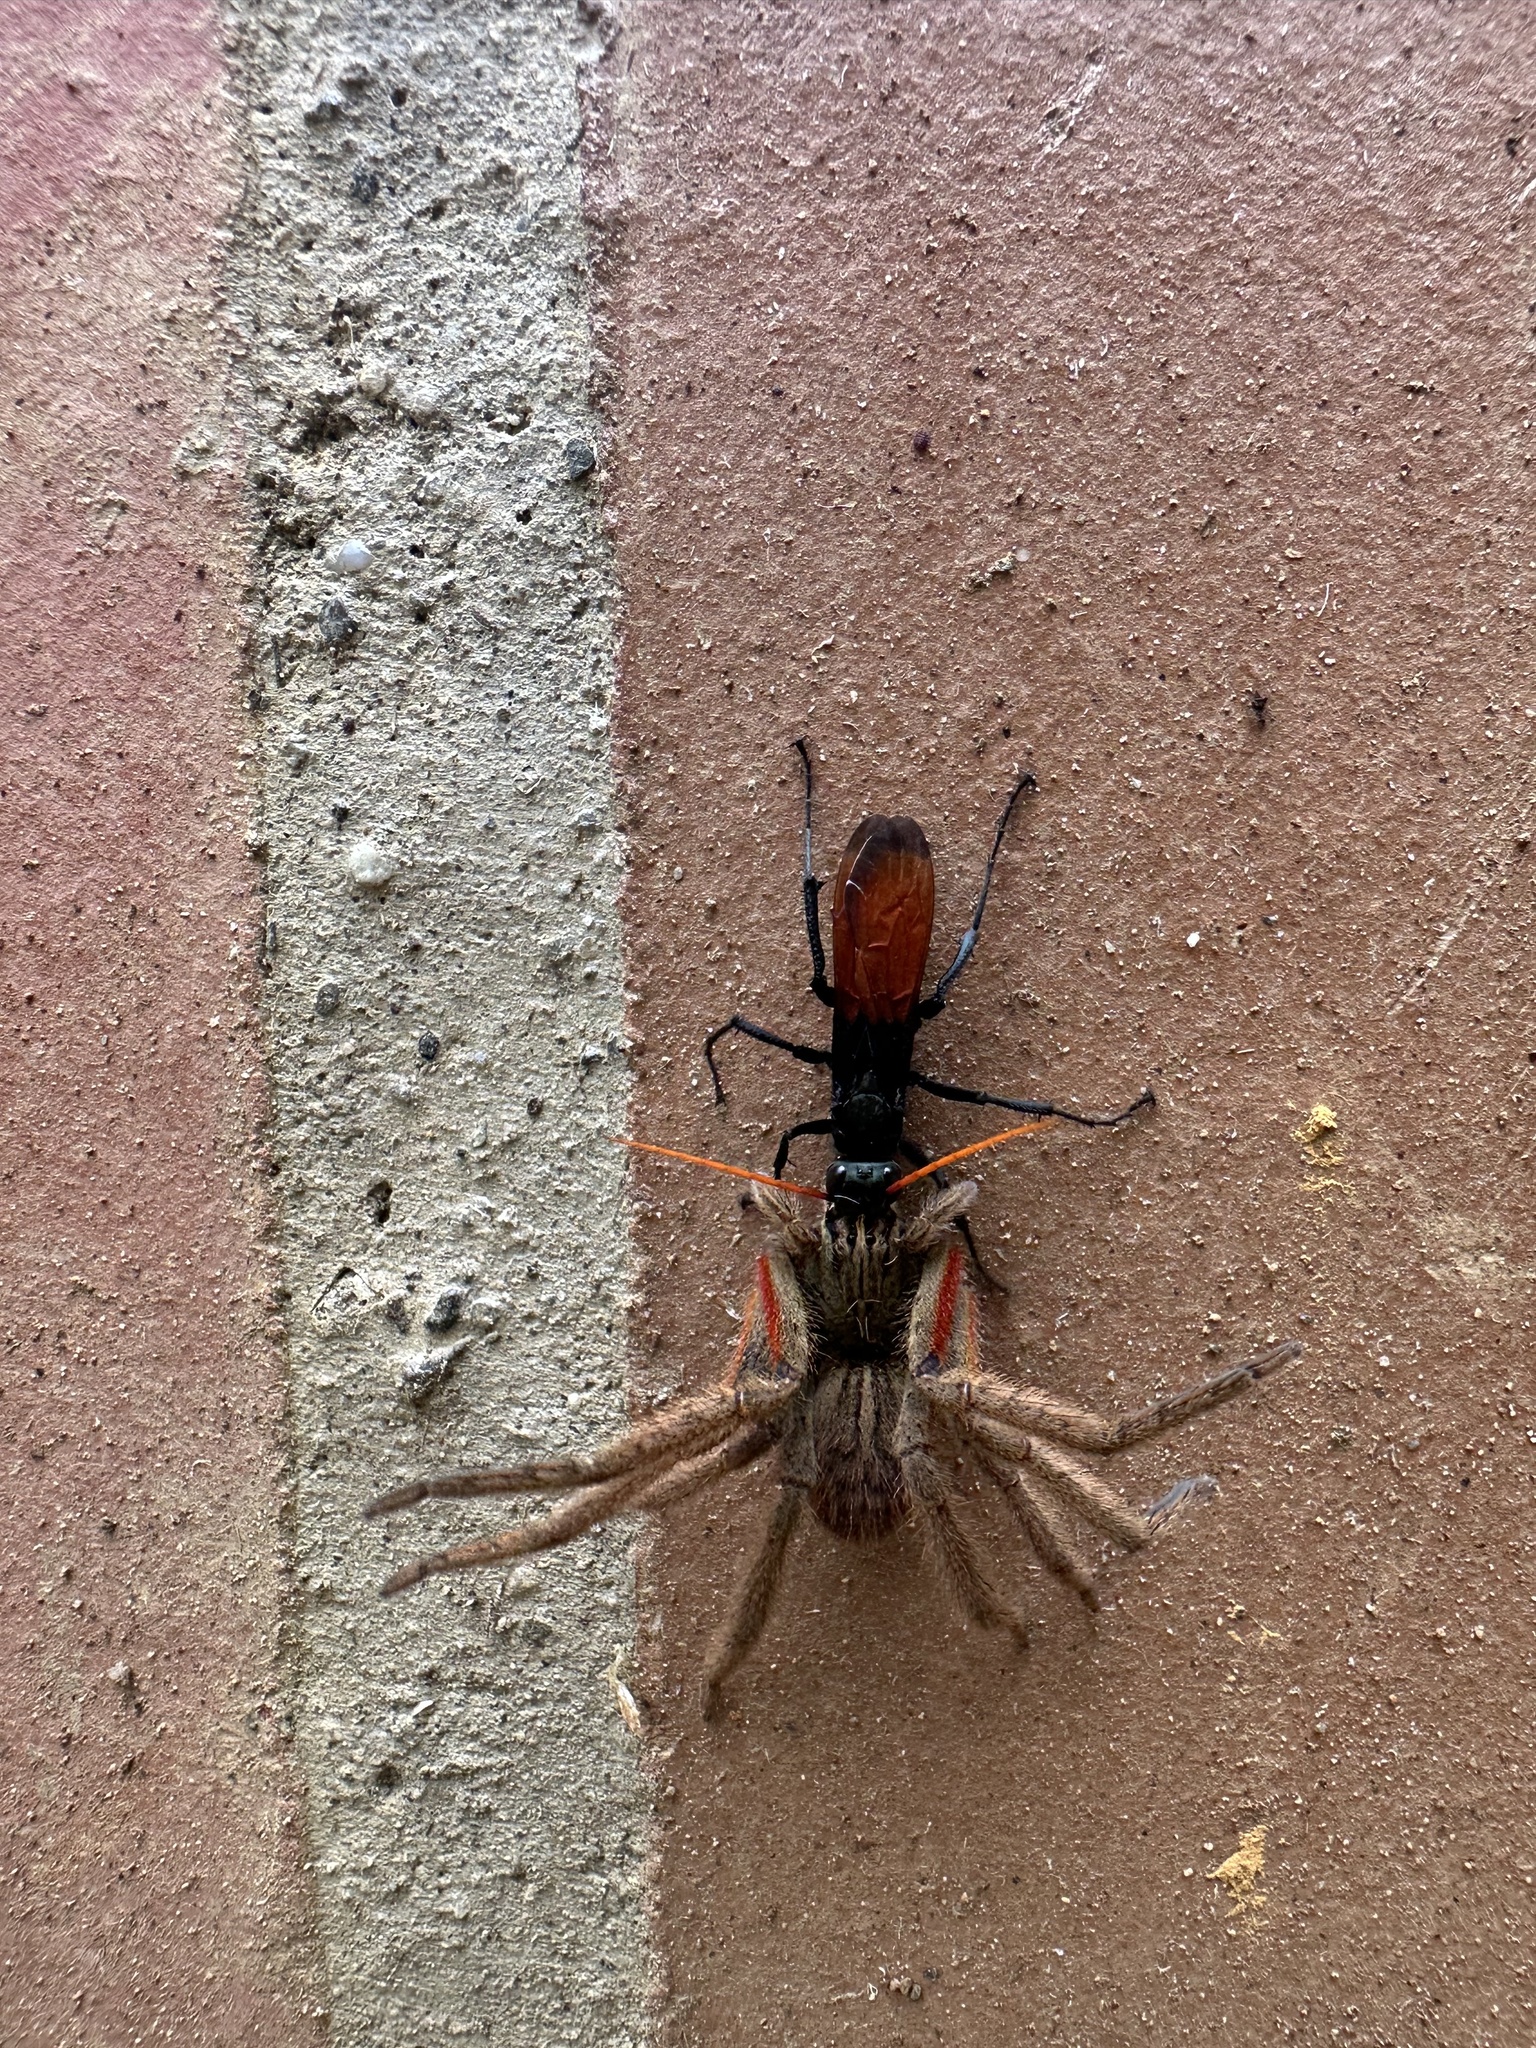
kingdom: Animalia
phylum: Arthropoda
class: Arachnida
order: Araneae
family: Trechaleidae
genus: Cupiennius
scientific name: Cupiennius coccineus
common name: Wandering spiders
